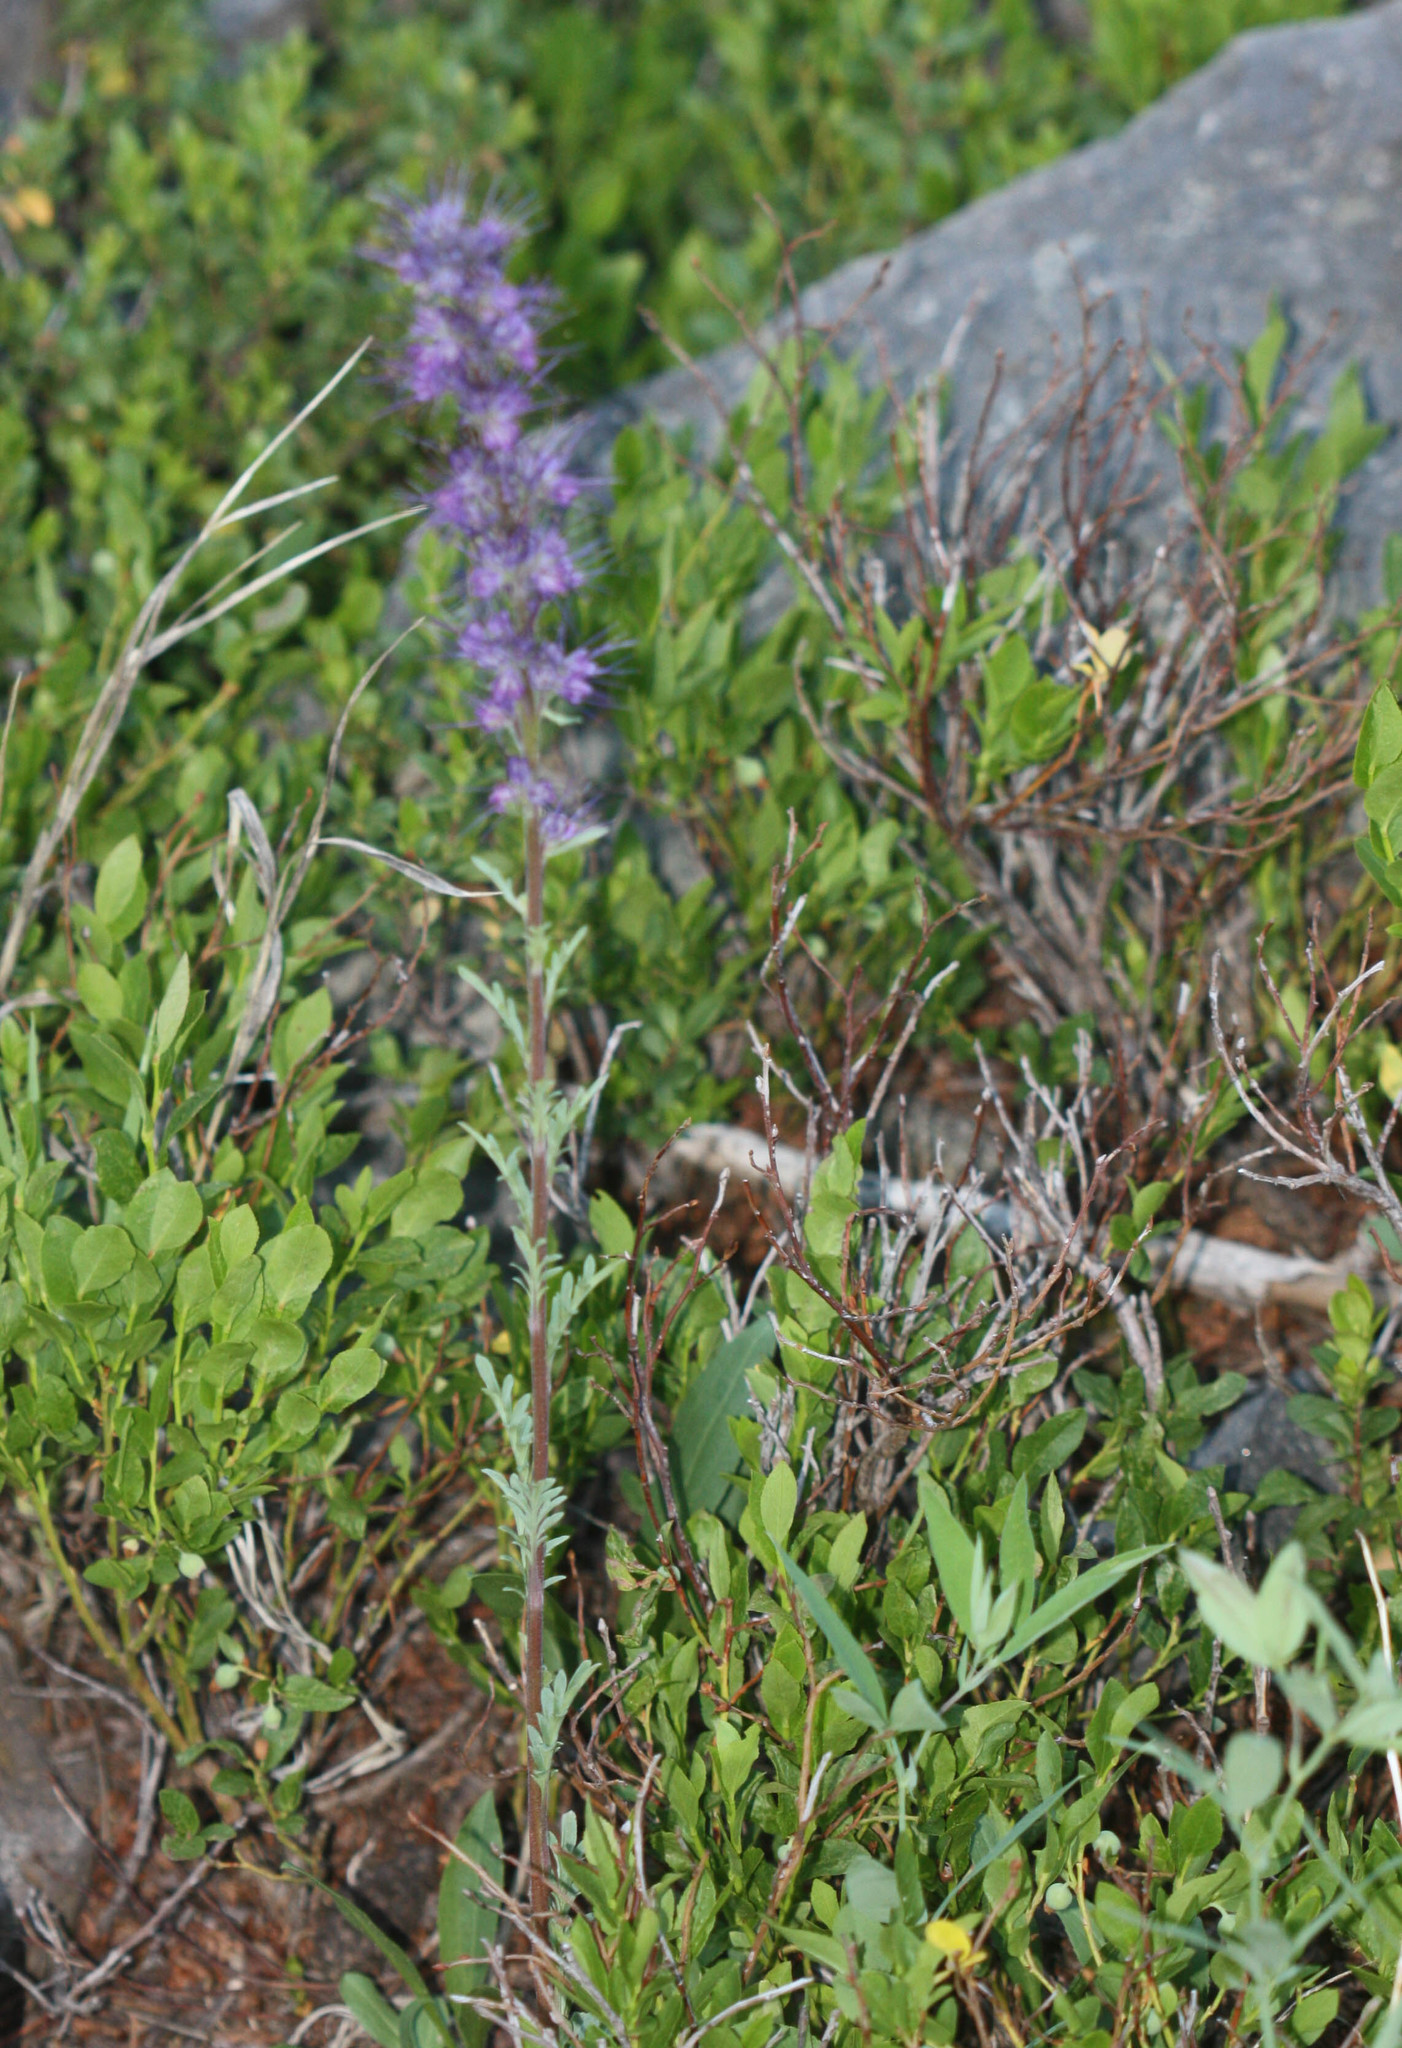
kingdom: Plantae
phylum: Tracheophyta
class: Magnoliopsida
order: Boraginales
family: Hydrophyllaceae
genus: Phacelia
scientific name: Phacelia sericea
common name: Silky phacelia
